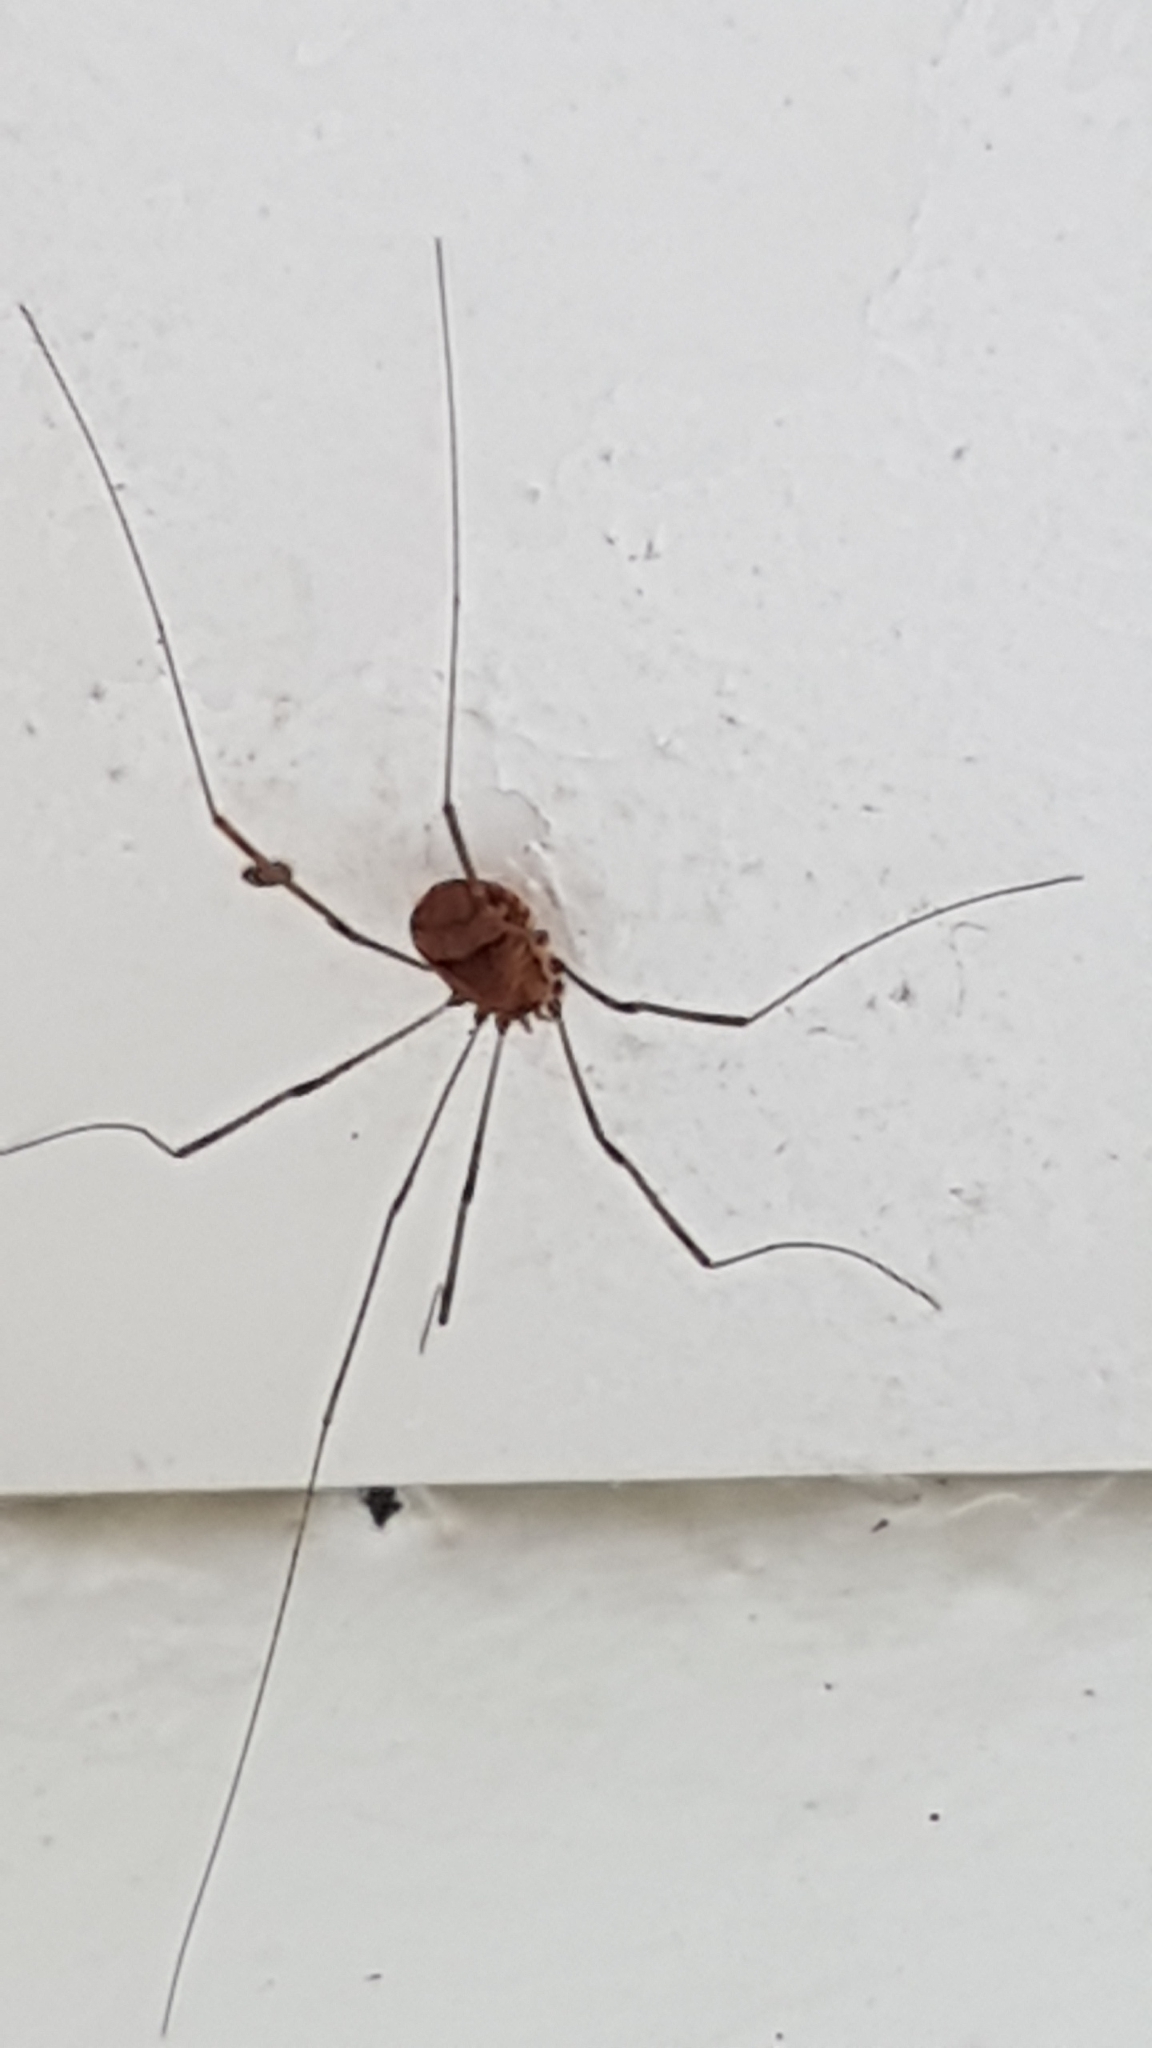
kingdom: Animalia
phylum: Arthropoda
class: Arachnida
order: Opiliones
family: Sclerosomatidae
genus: Leiobunum
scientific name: Leiobunum blackwalli
